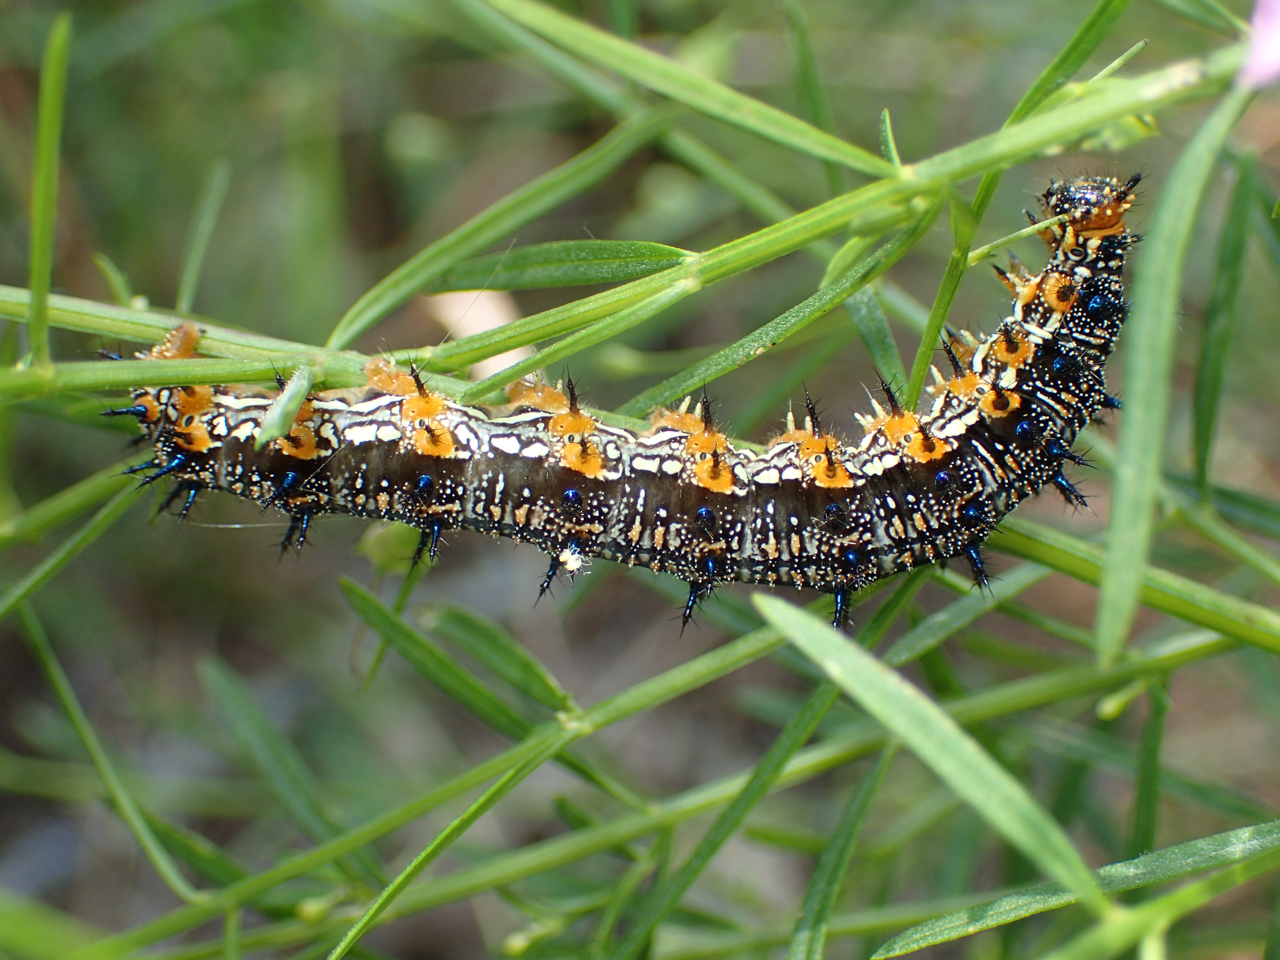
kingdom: Animalia
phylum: Arthropoda
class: Insecta
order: Lepidoptera
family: Nymphalidae
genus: Junonia
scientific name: Junonia coenia
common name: Common buckeye
